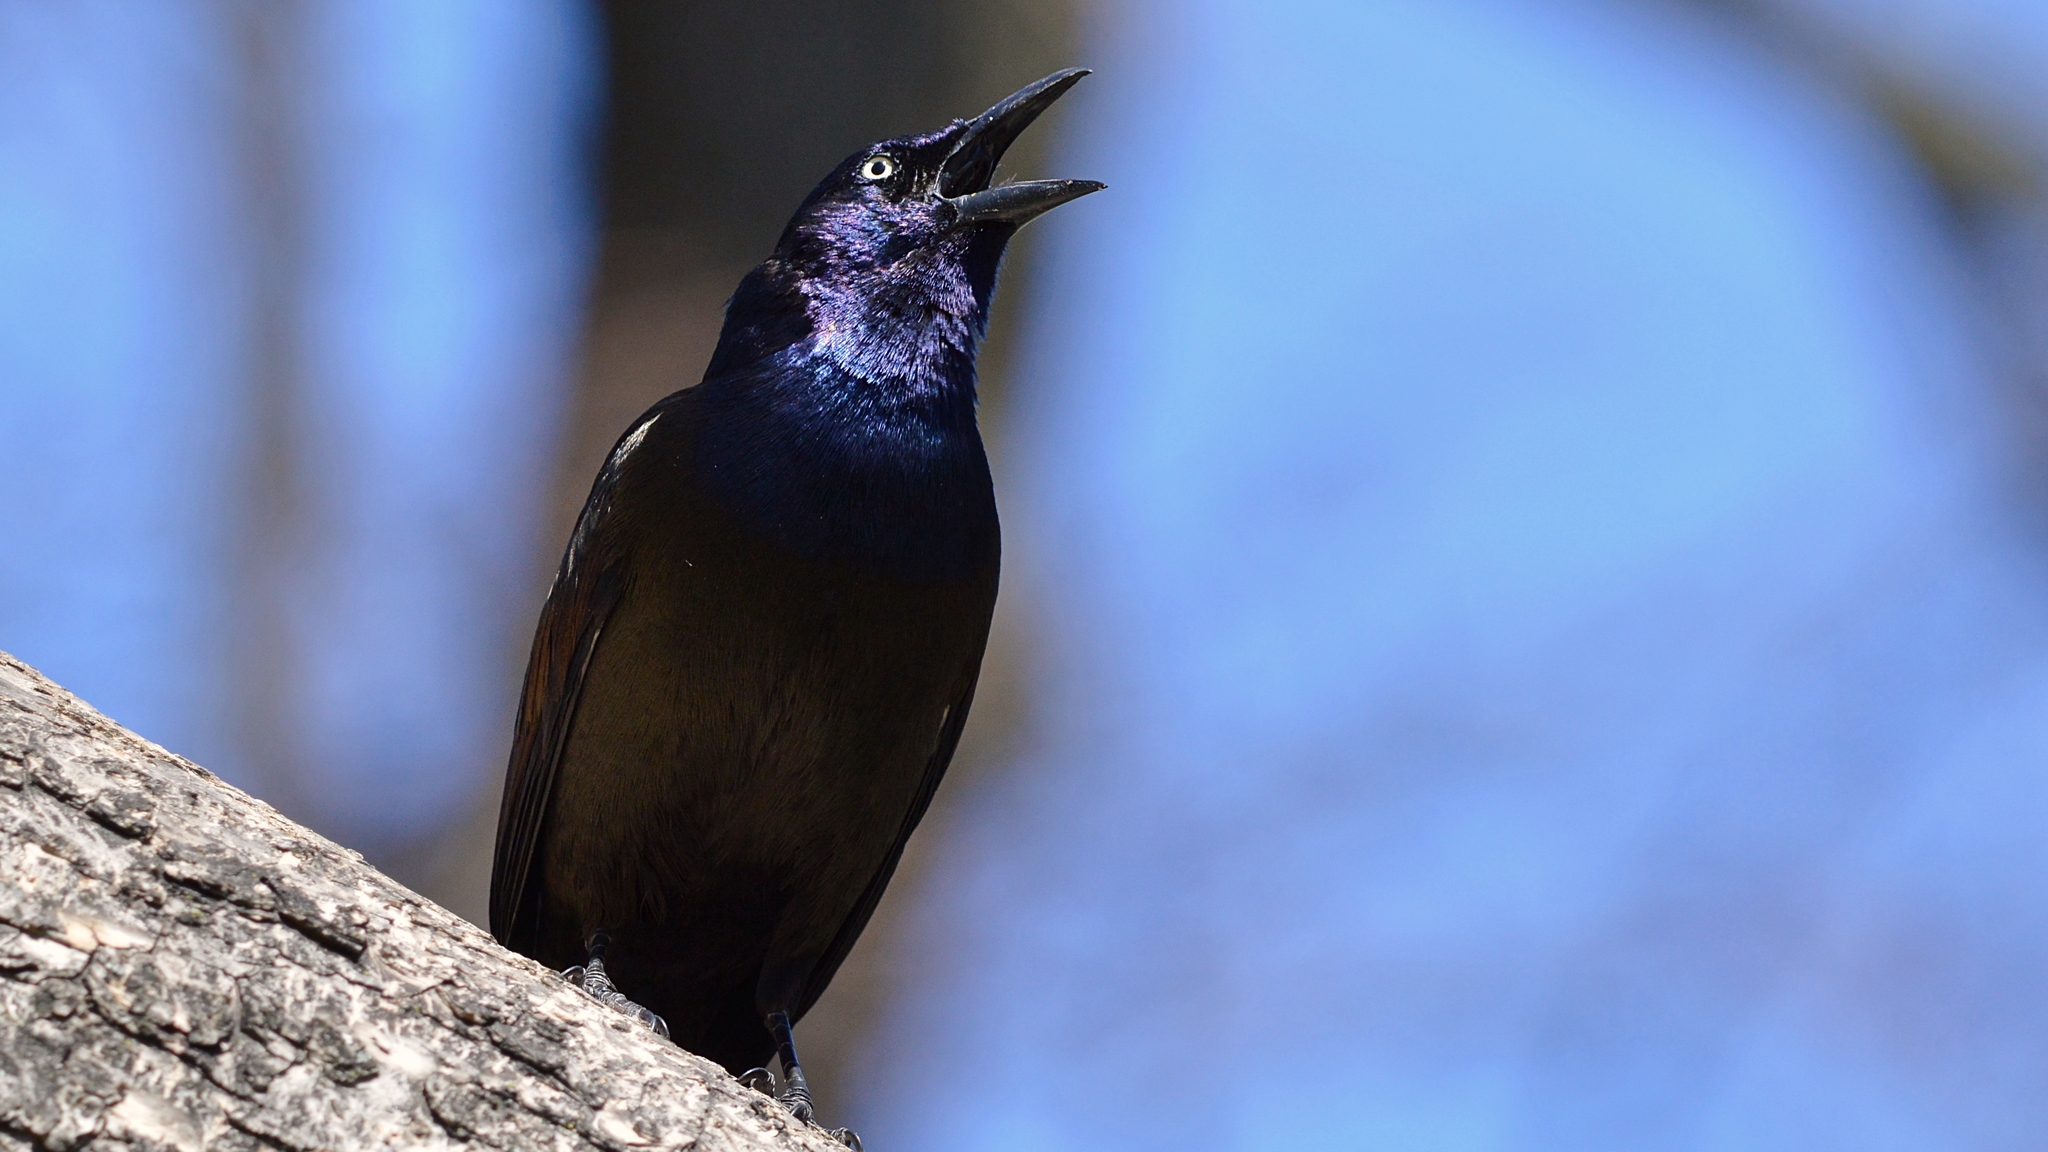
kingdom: Animalia
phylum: Chordata
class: Aves
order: Passeriformes
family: Icteridae
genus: Quiscalus
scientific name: Quiscalus quiscula
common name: Common grackle
